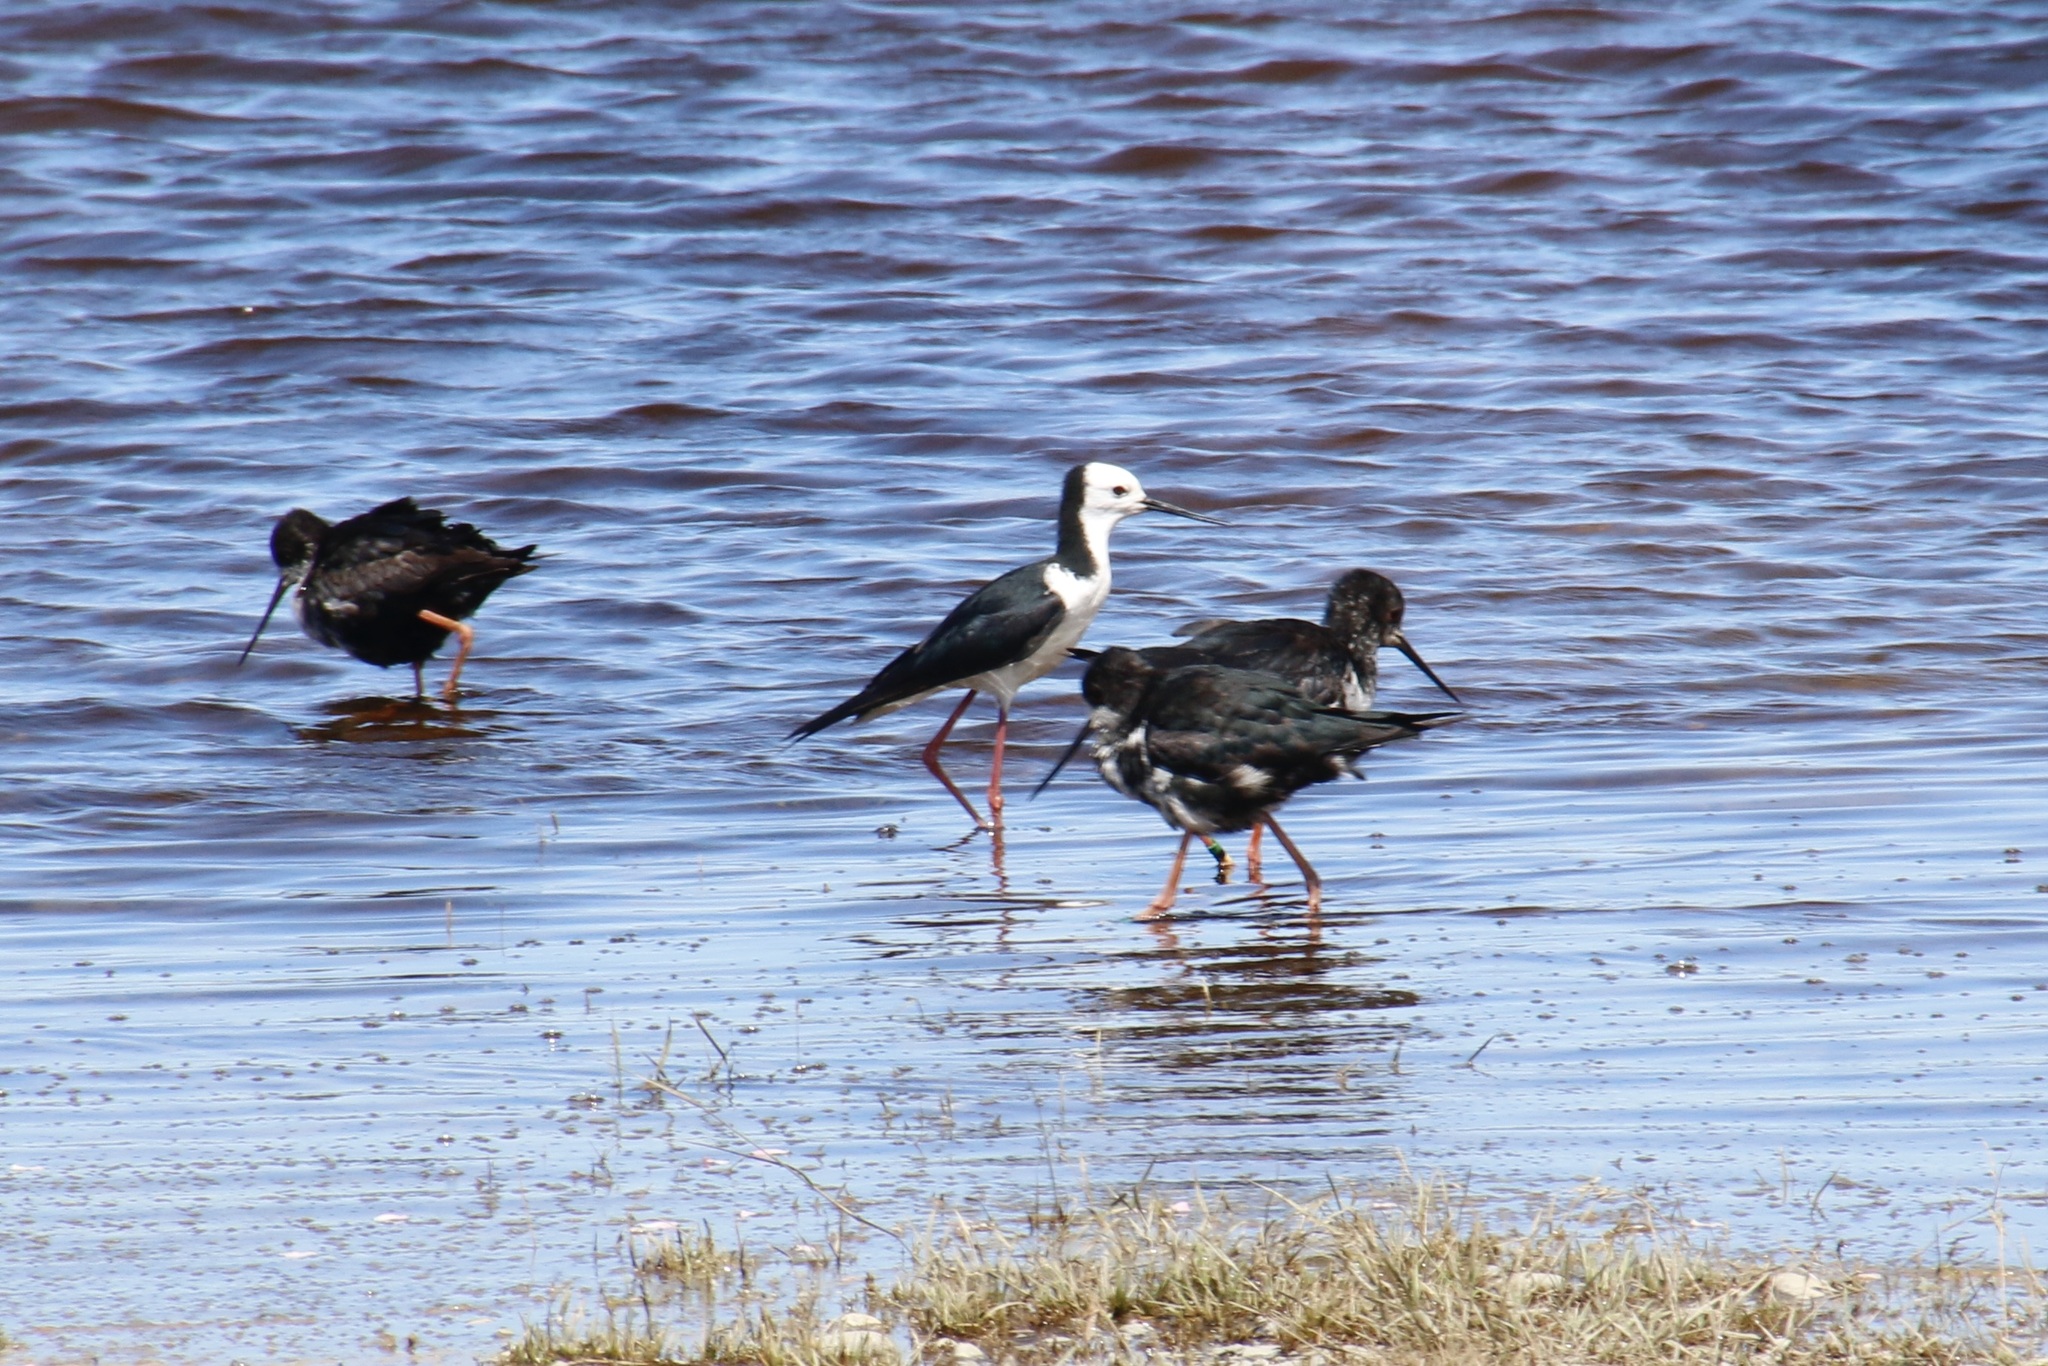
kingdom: Animalia
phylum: Chordata
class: Aves
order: Charadriiformes
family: Recurvirostridae
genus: Himantopus
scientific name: Himantopus leucocephalus
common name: White-headed stilt
